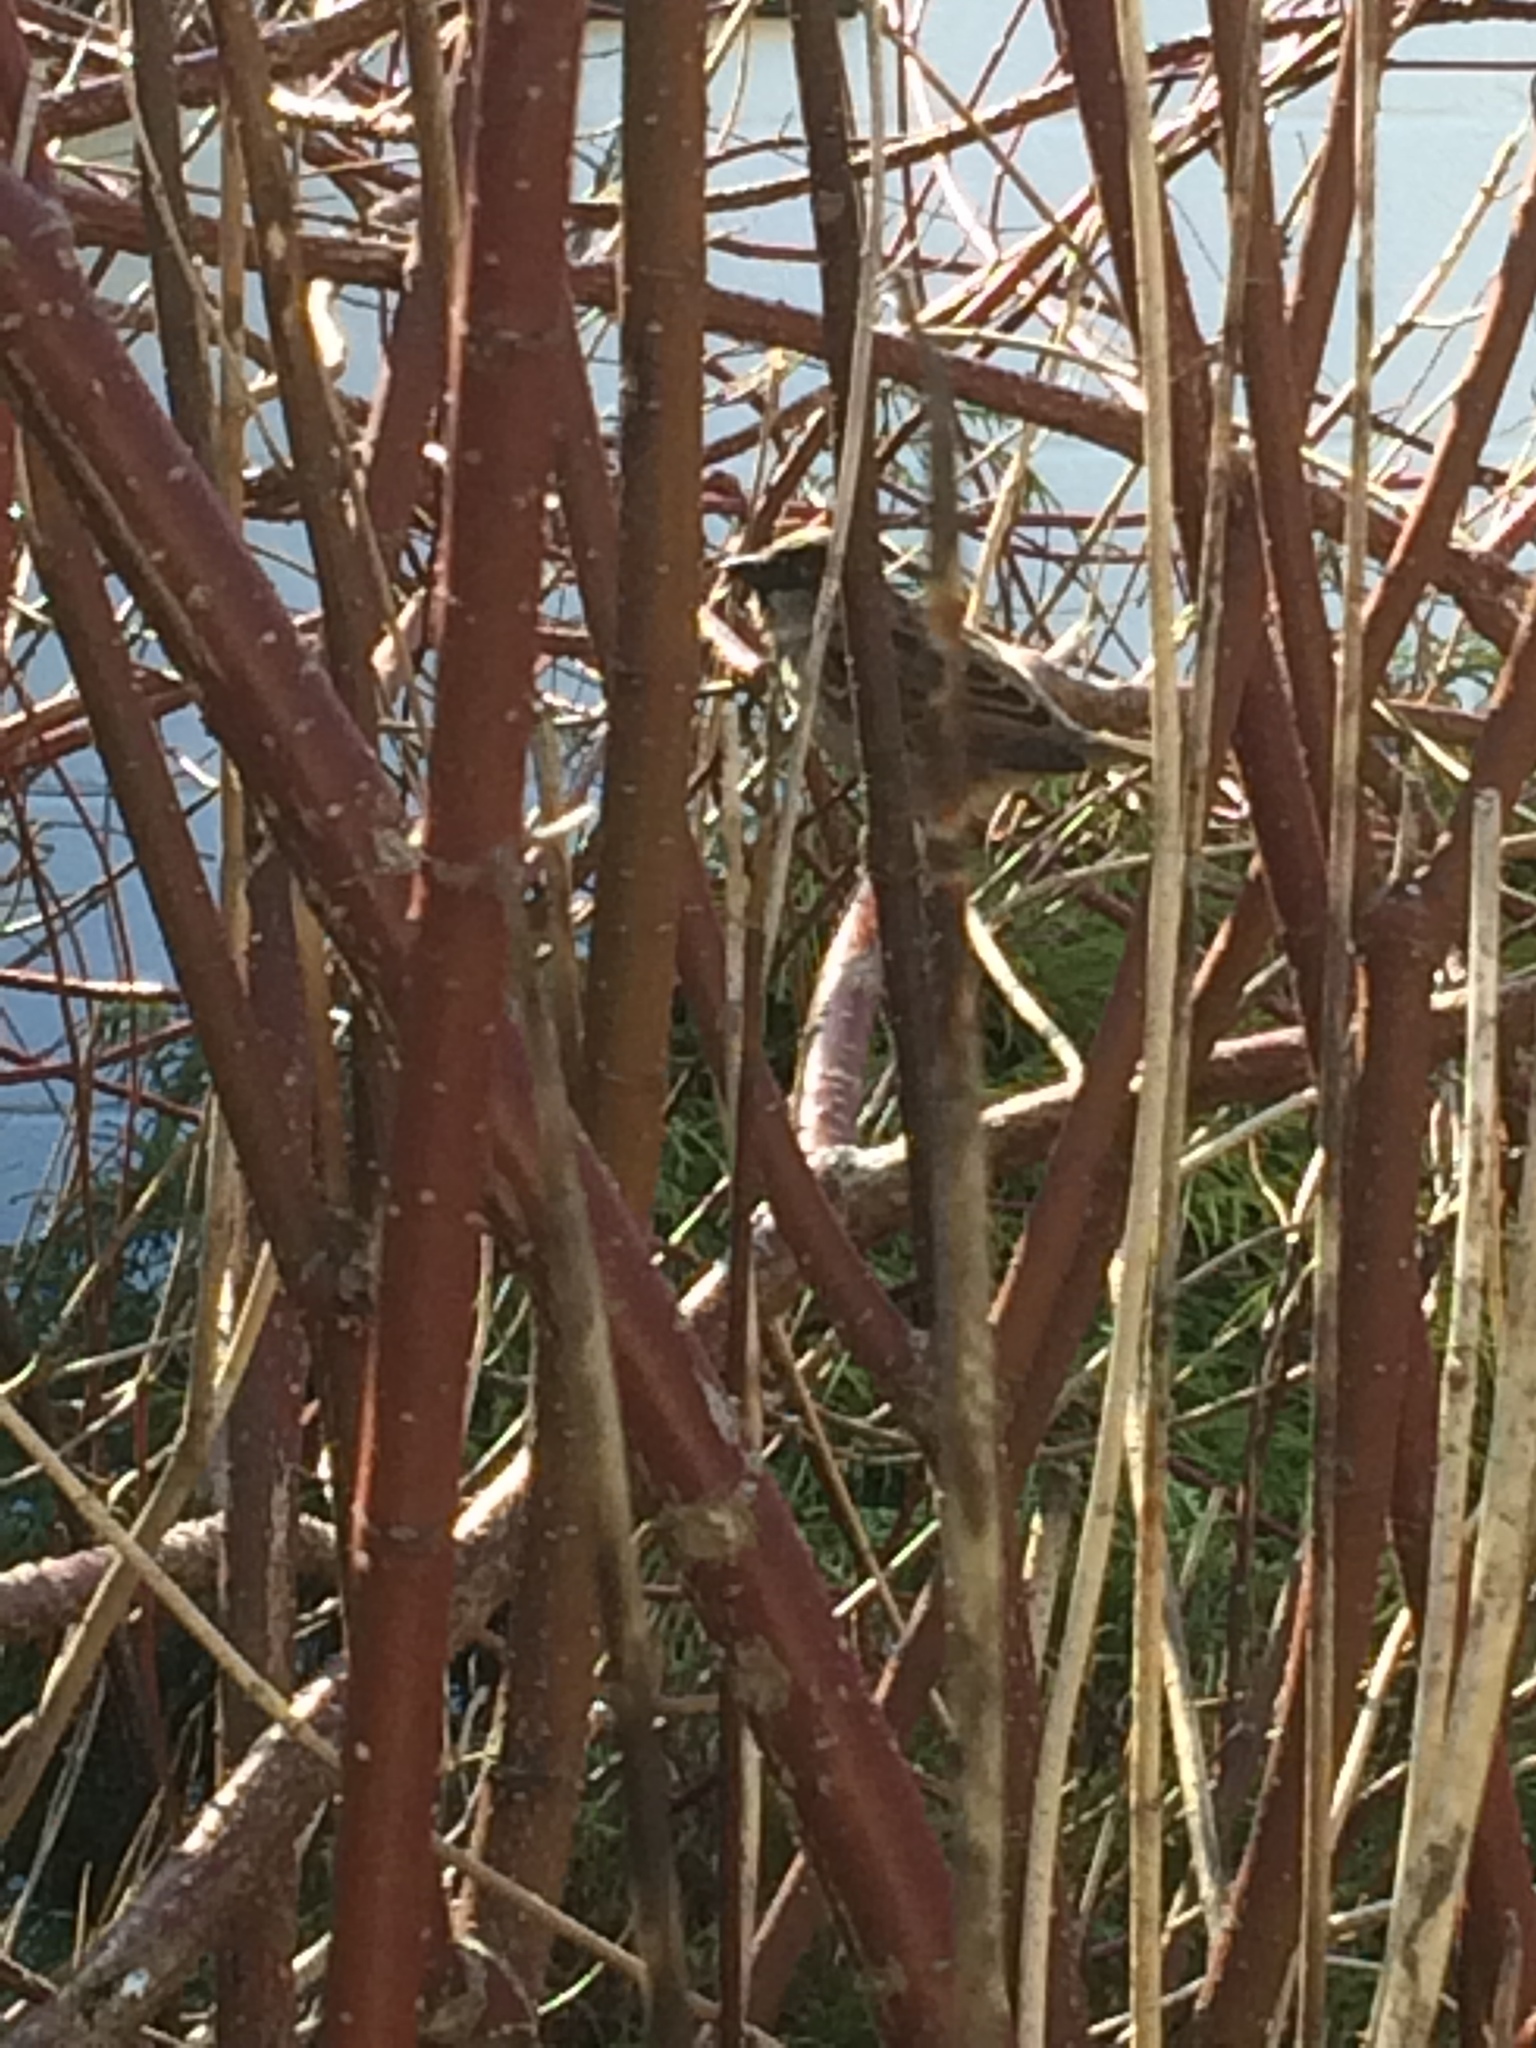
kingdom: Animalia
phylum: Chordata
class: Aves
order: Passeriformes
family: Passeridae
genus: Passer
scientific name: Passer domesticus
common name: House sparrow
